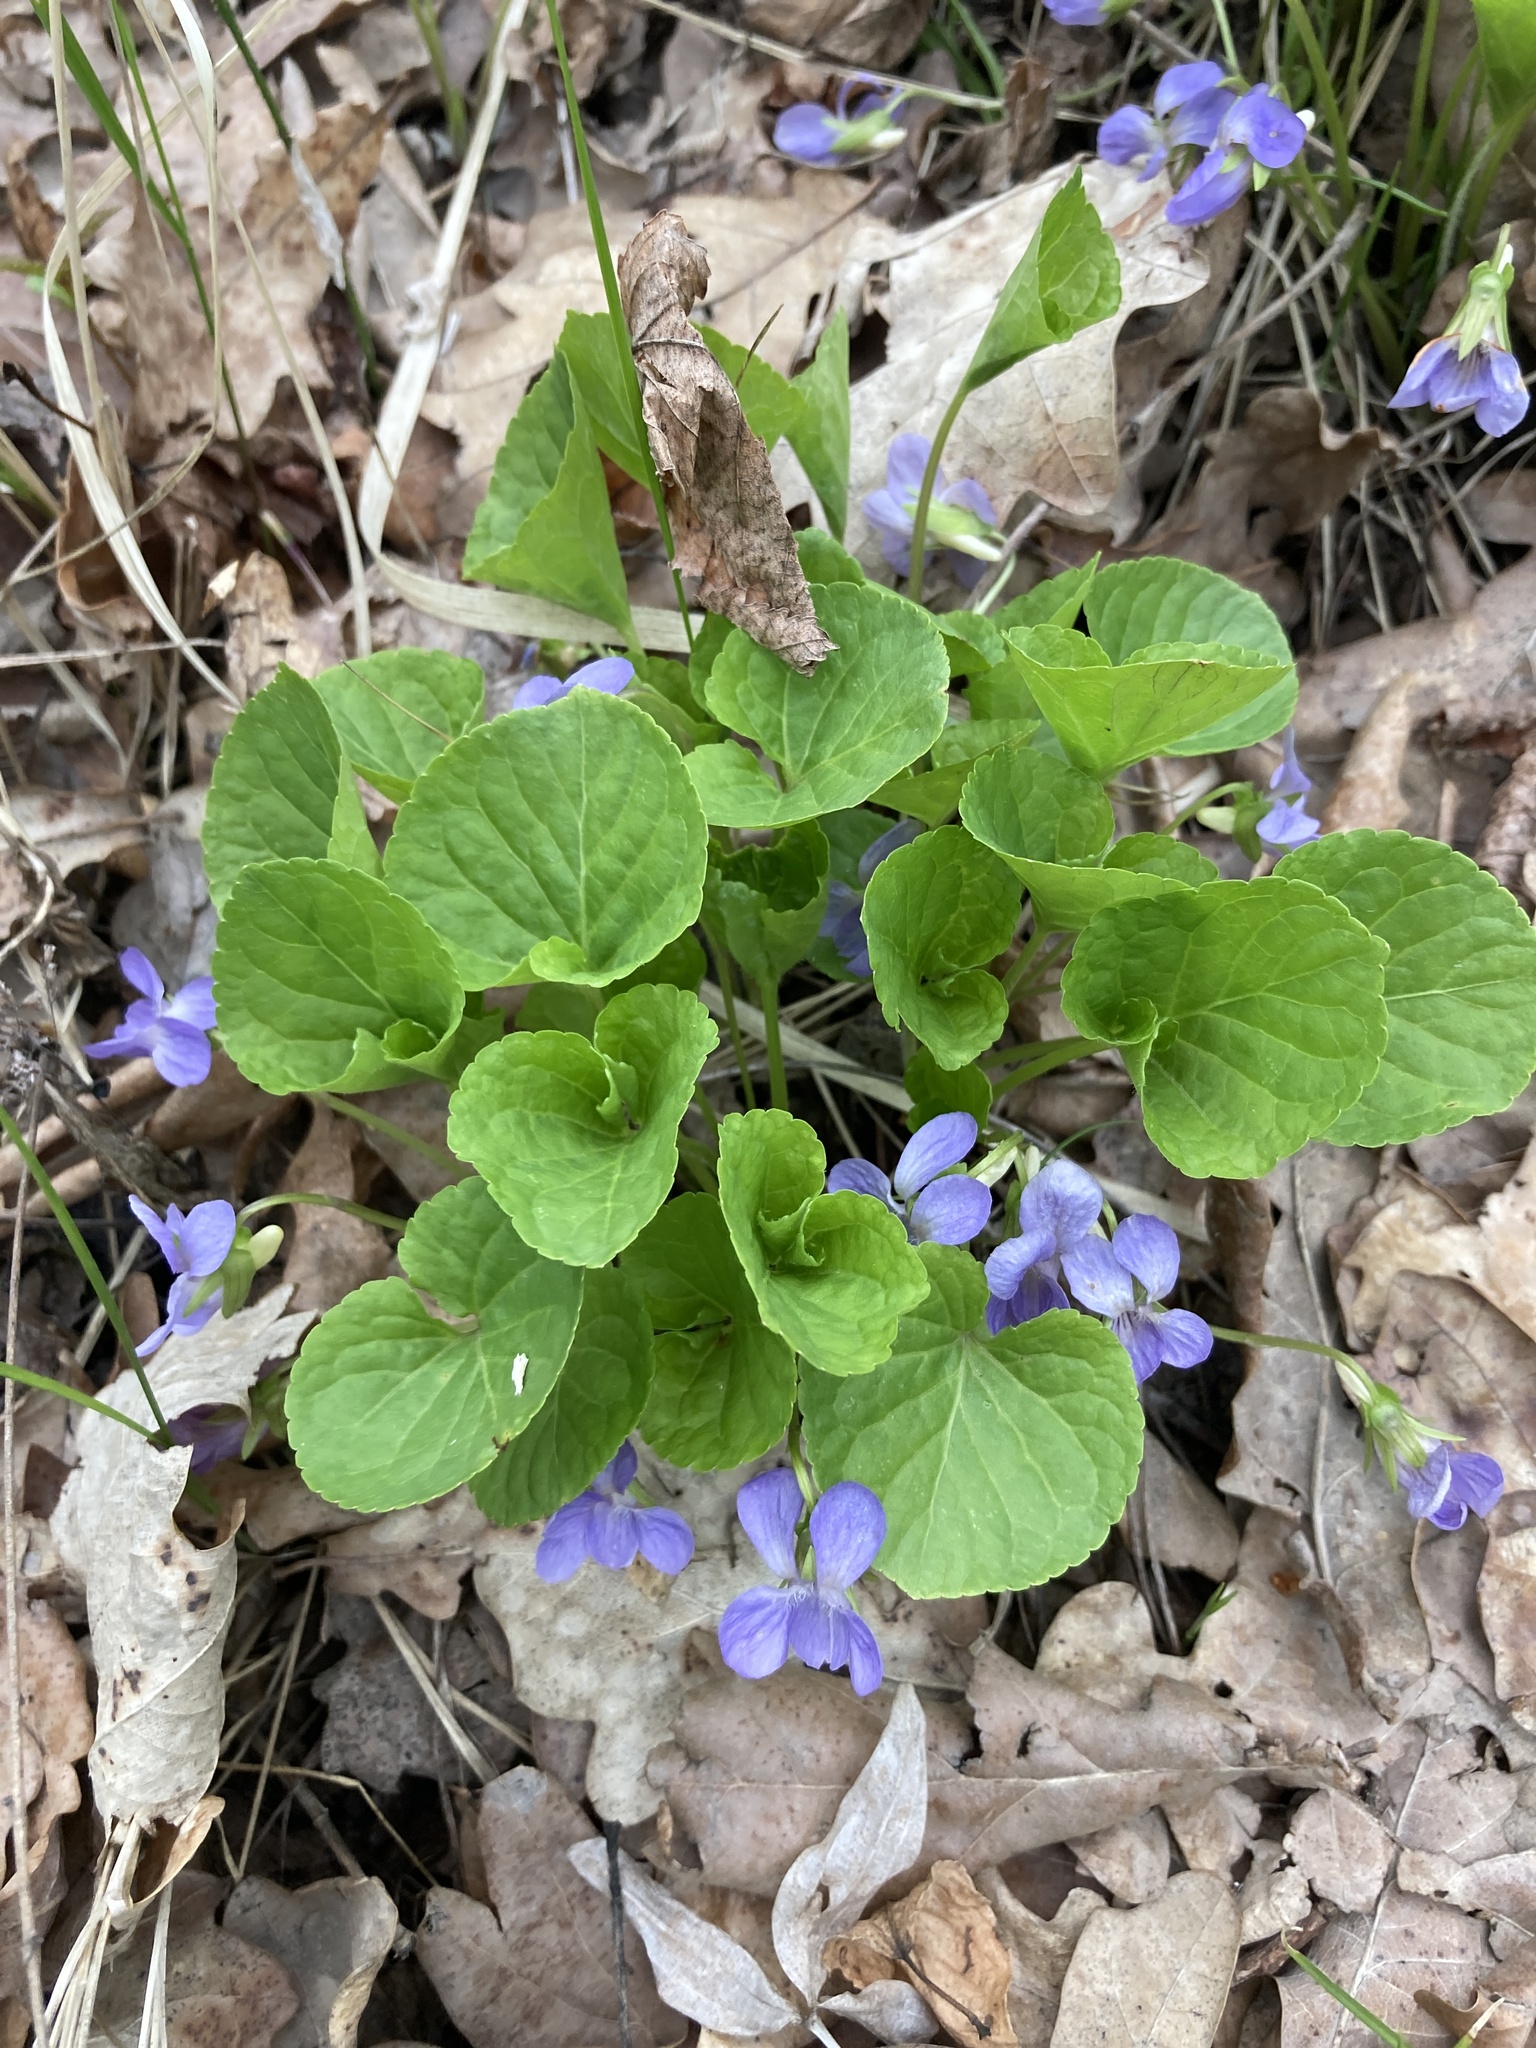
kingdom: Plantae
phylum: Tracheophyta
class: Magnoliopsida
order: Malpighiales
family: Violaceae
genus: Viola
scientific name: Viola mirabilis
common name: Wonder violet
